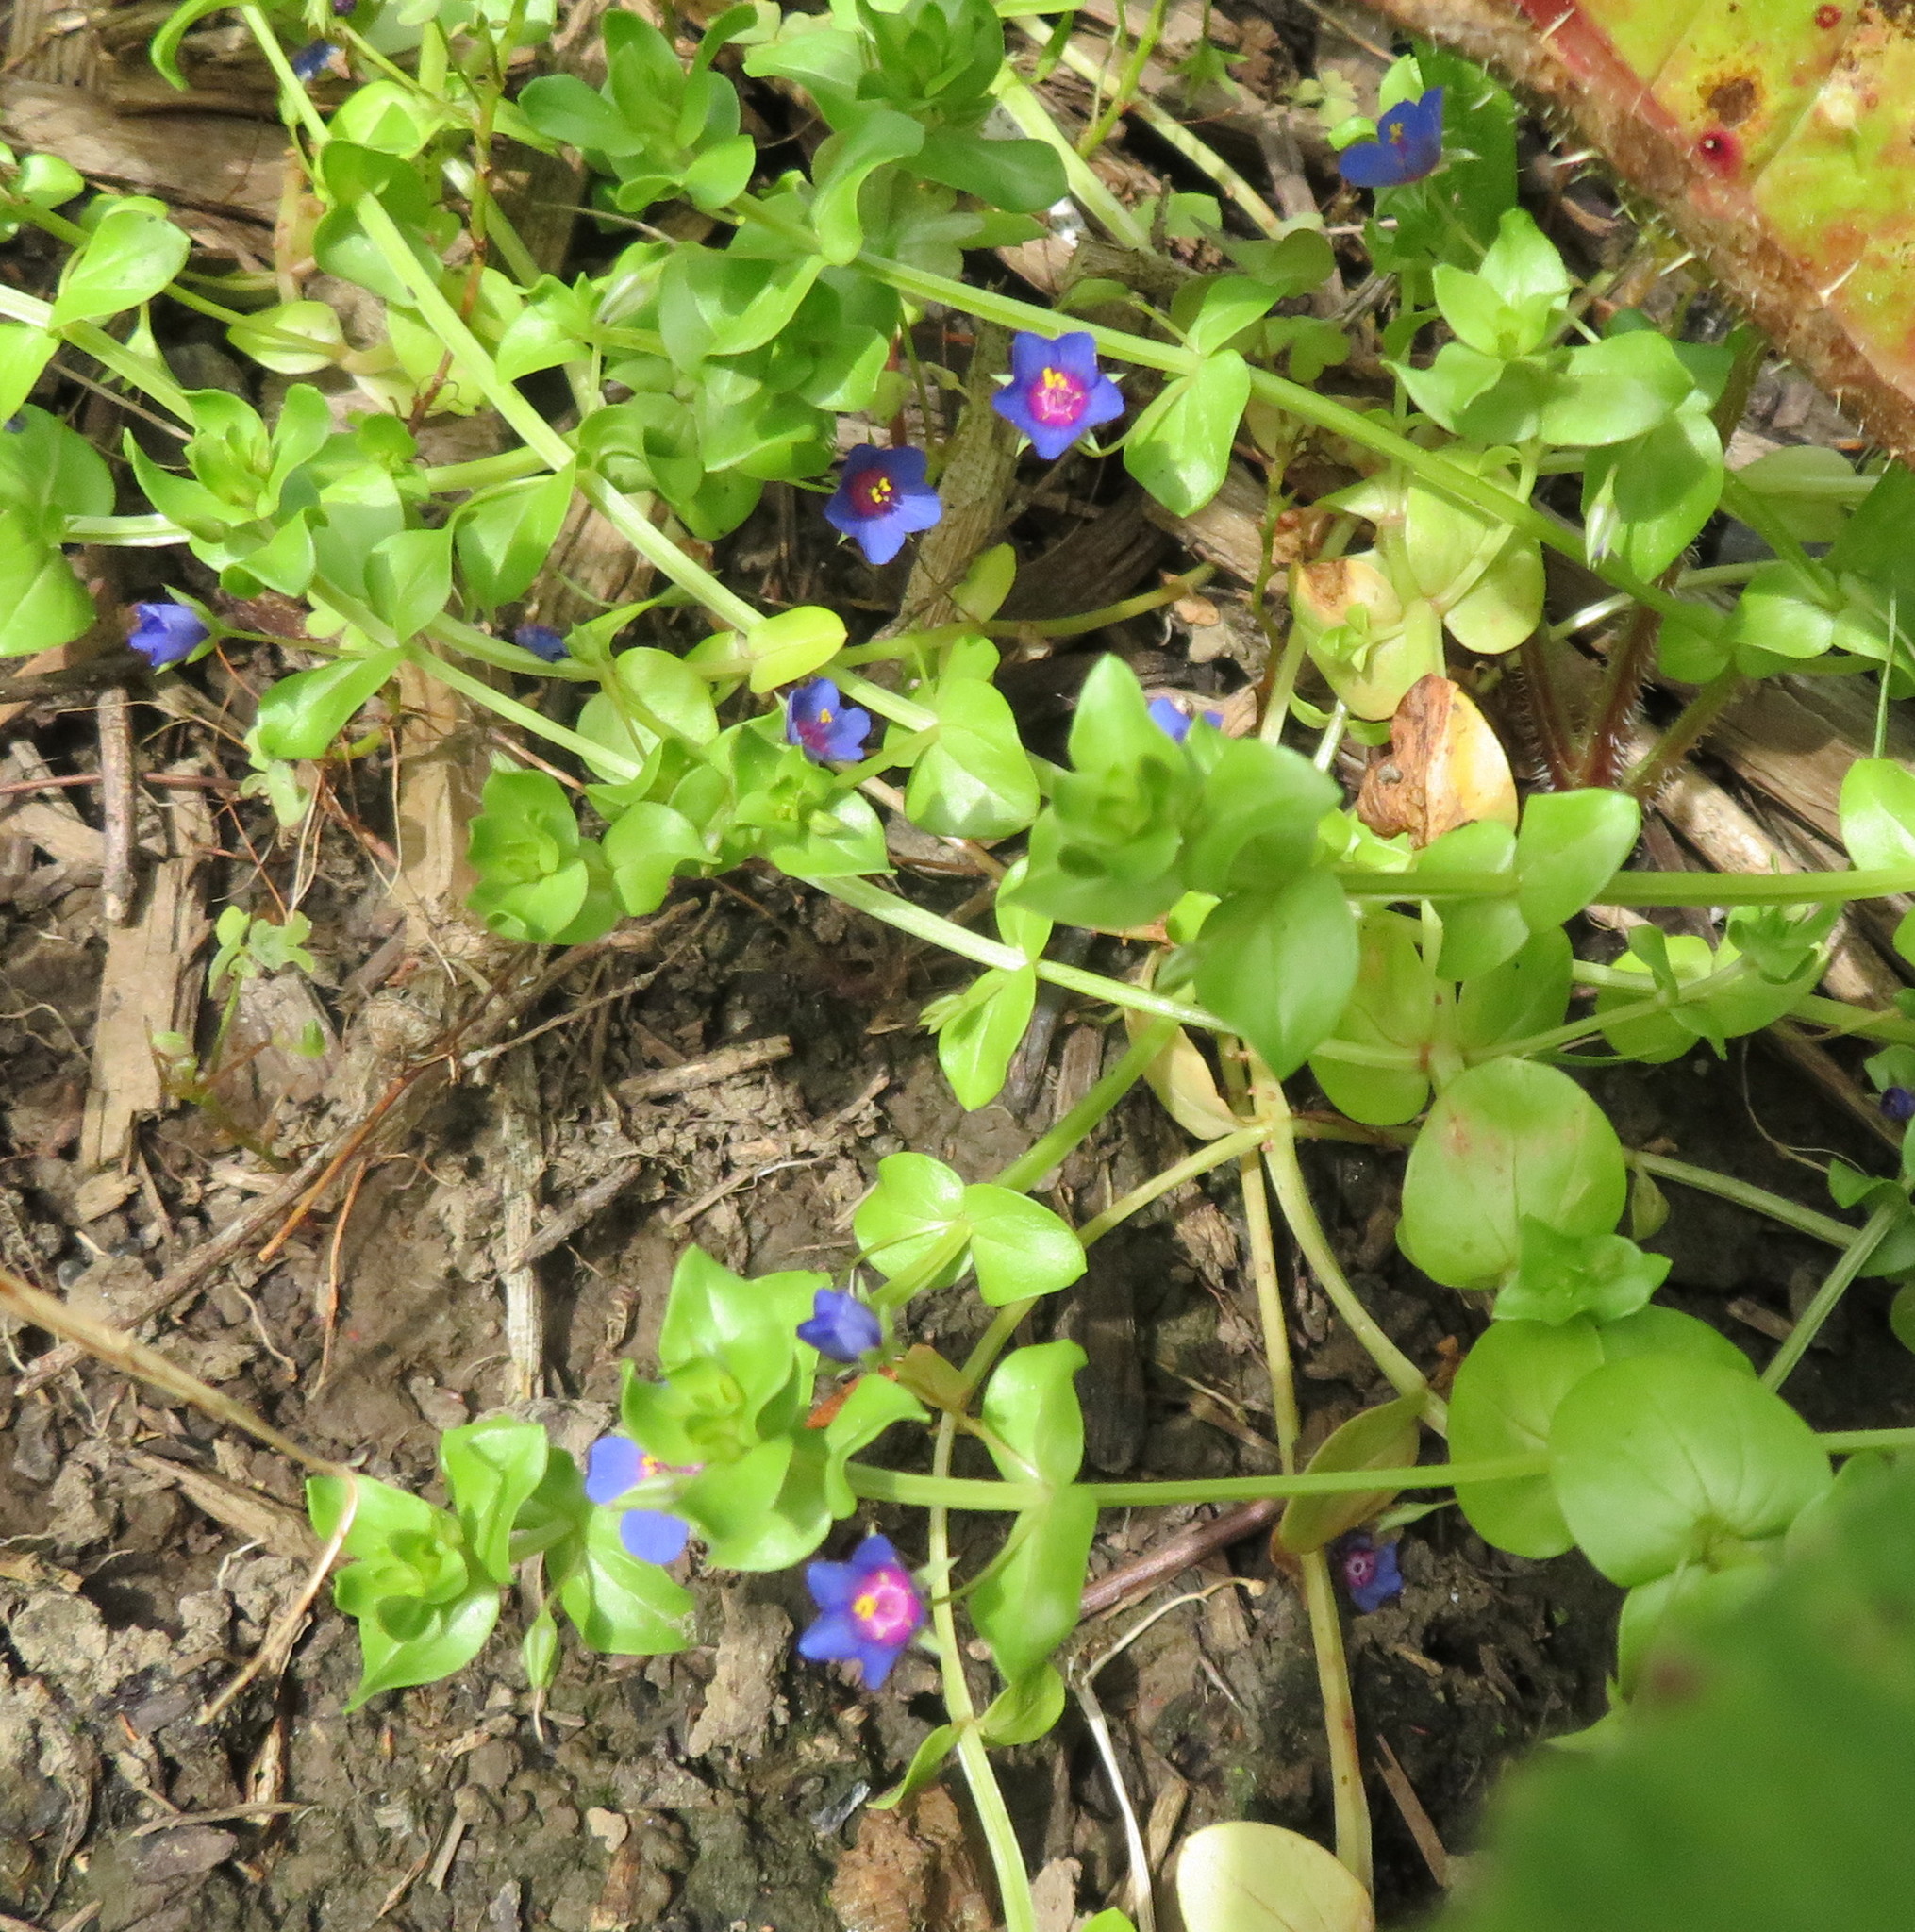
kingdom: Plantae
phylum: Tracheophyta
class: Magnoliopsida
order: Ericales
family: Primulaceae
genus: Lysimachia
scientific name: Lysimachia arvensis
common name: Scarlet pimpernel
